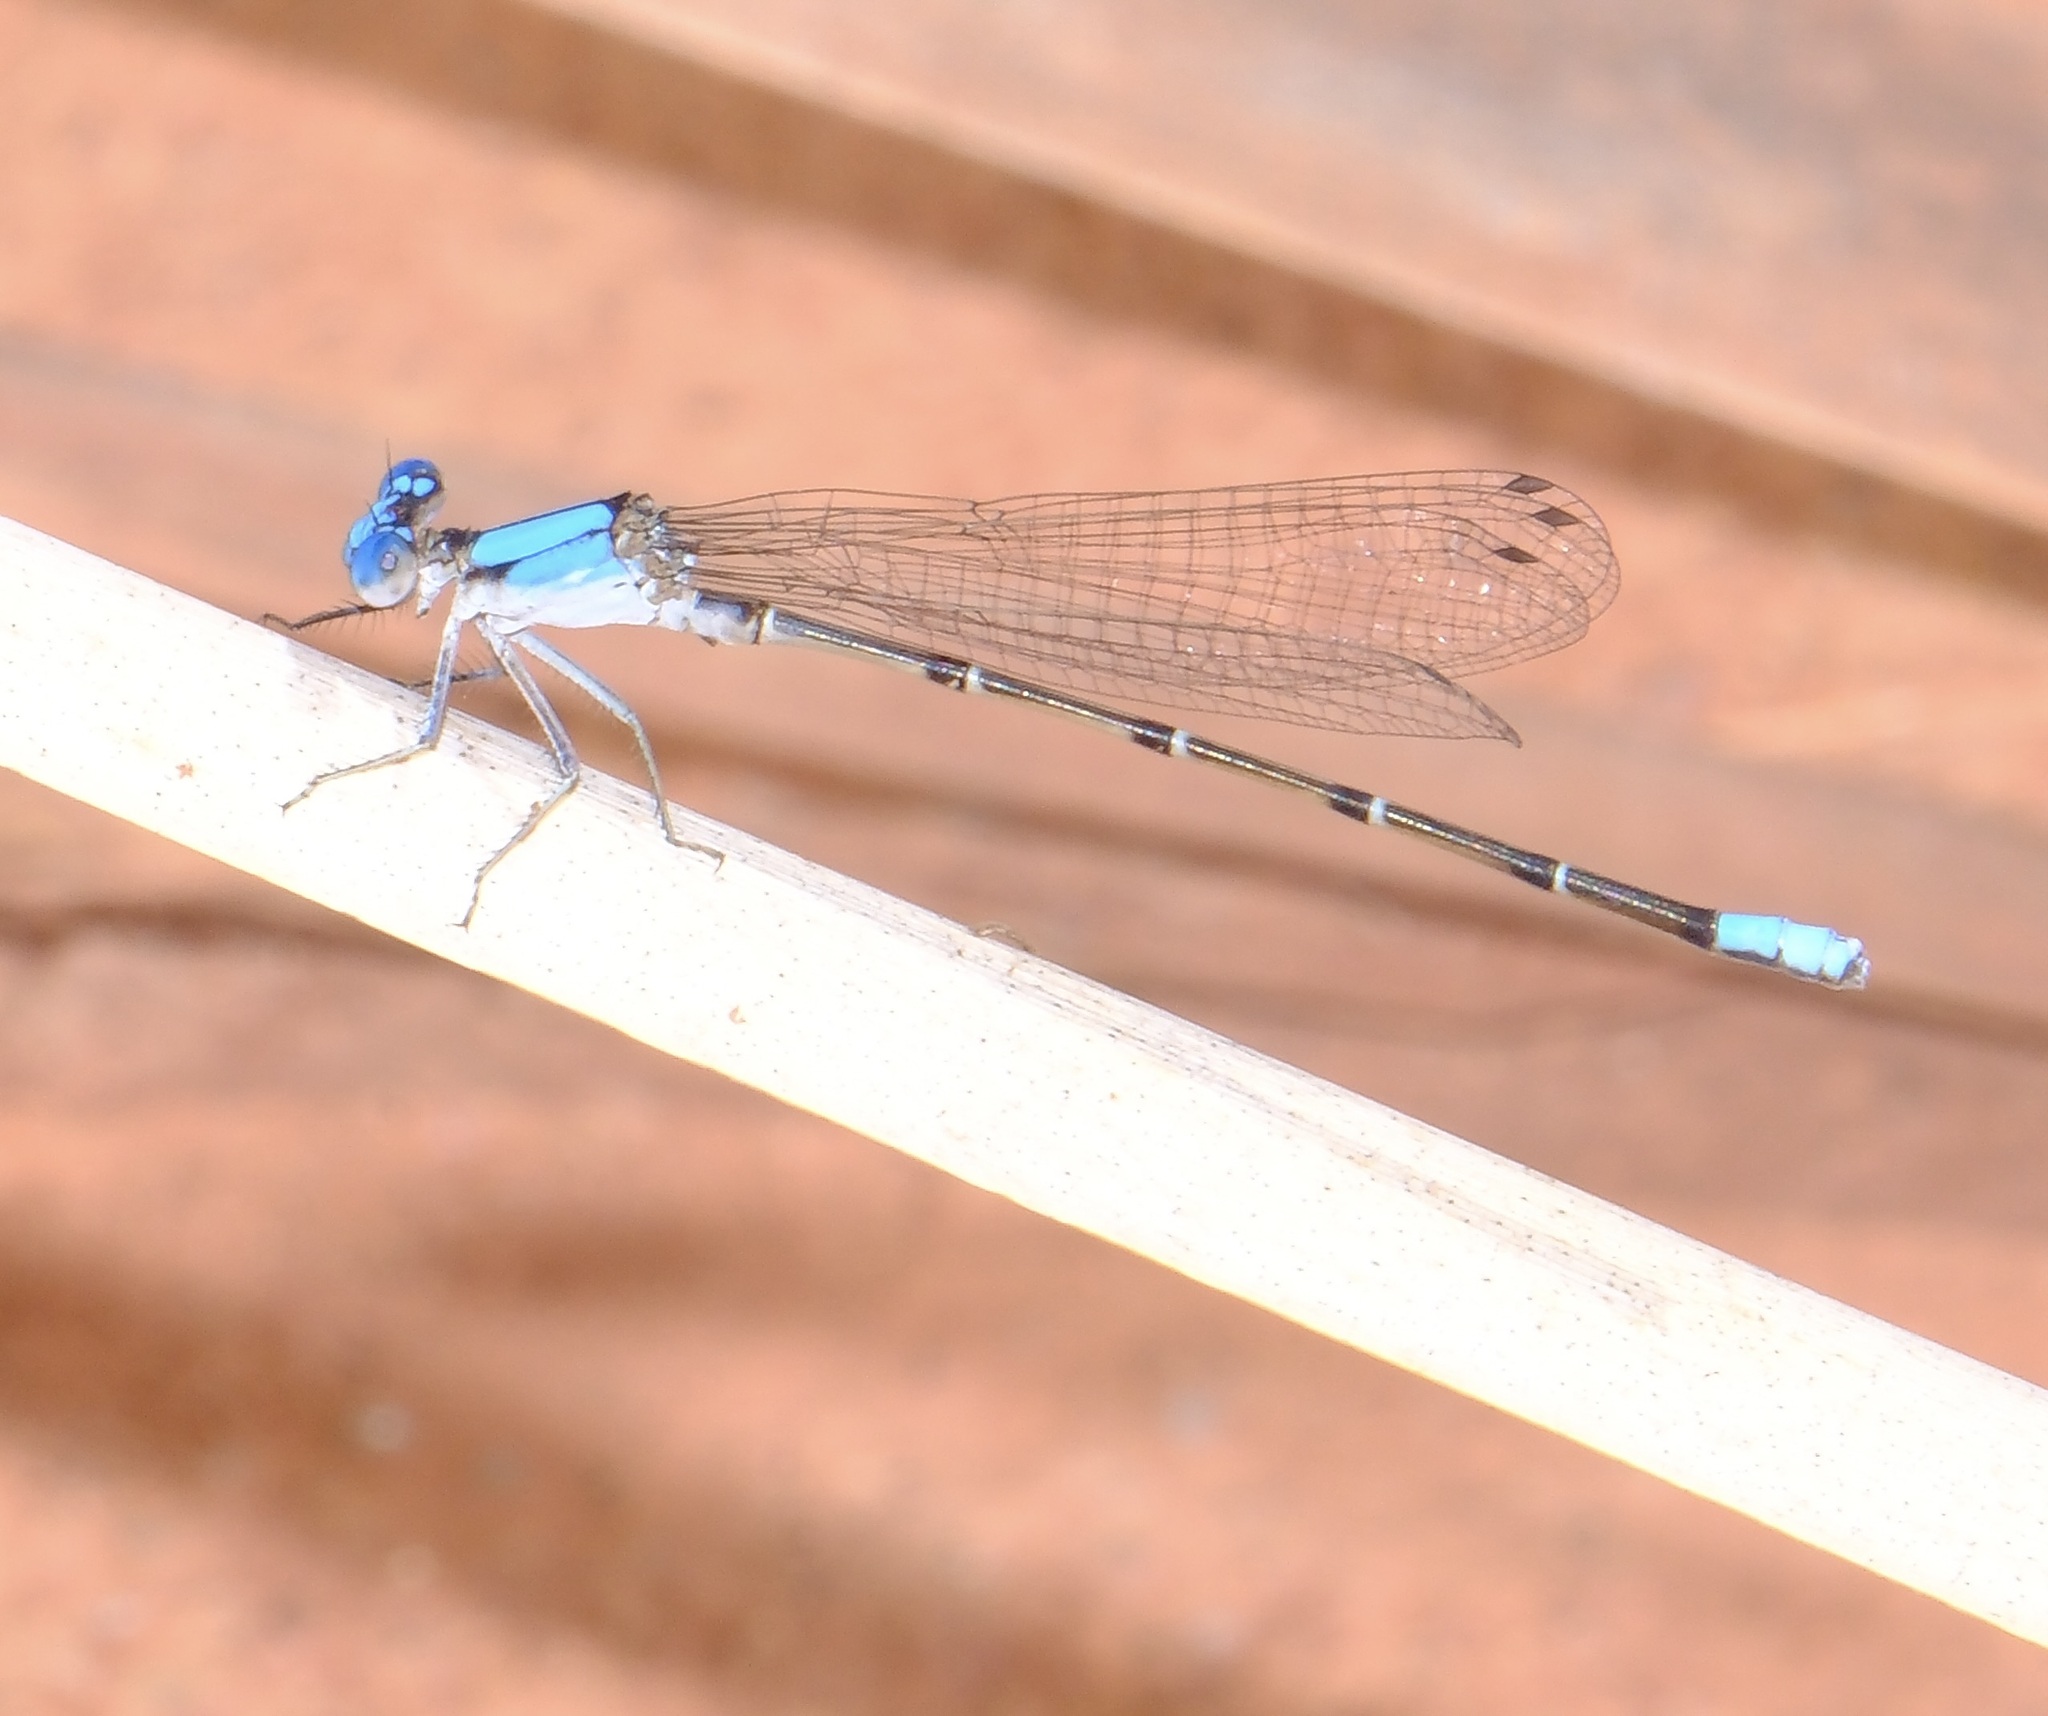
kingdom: Animalia
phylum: Arthropoda
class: Insecta
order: Odonata
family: Coenagrionidae
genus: Argia
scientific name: Argia apicalis
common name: Blue-fronted dancer
